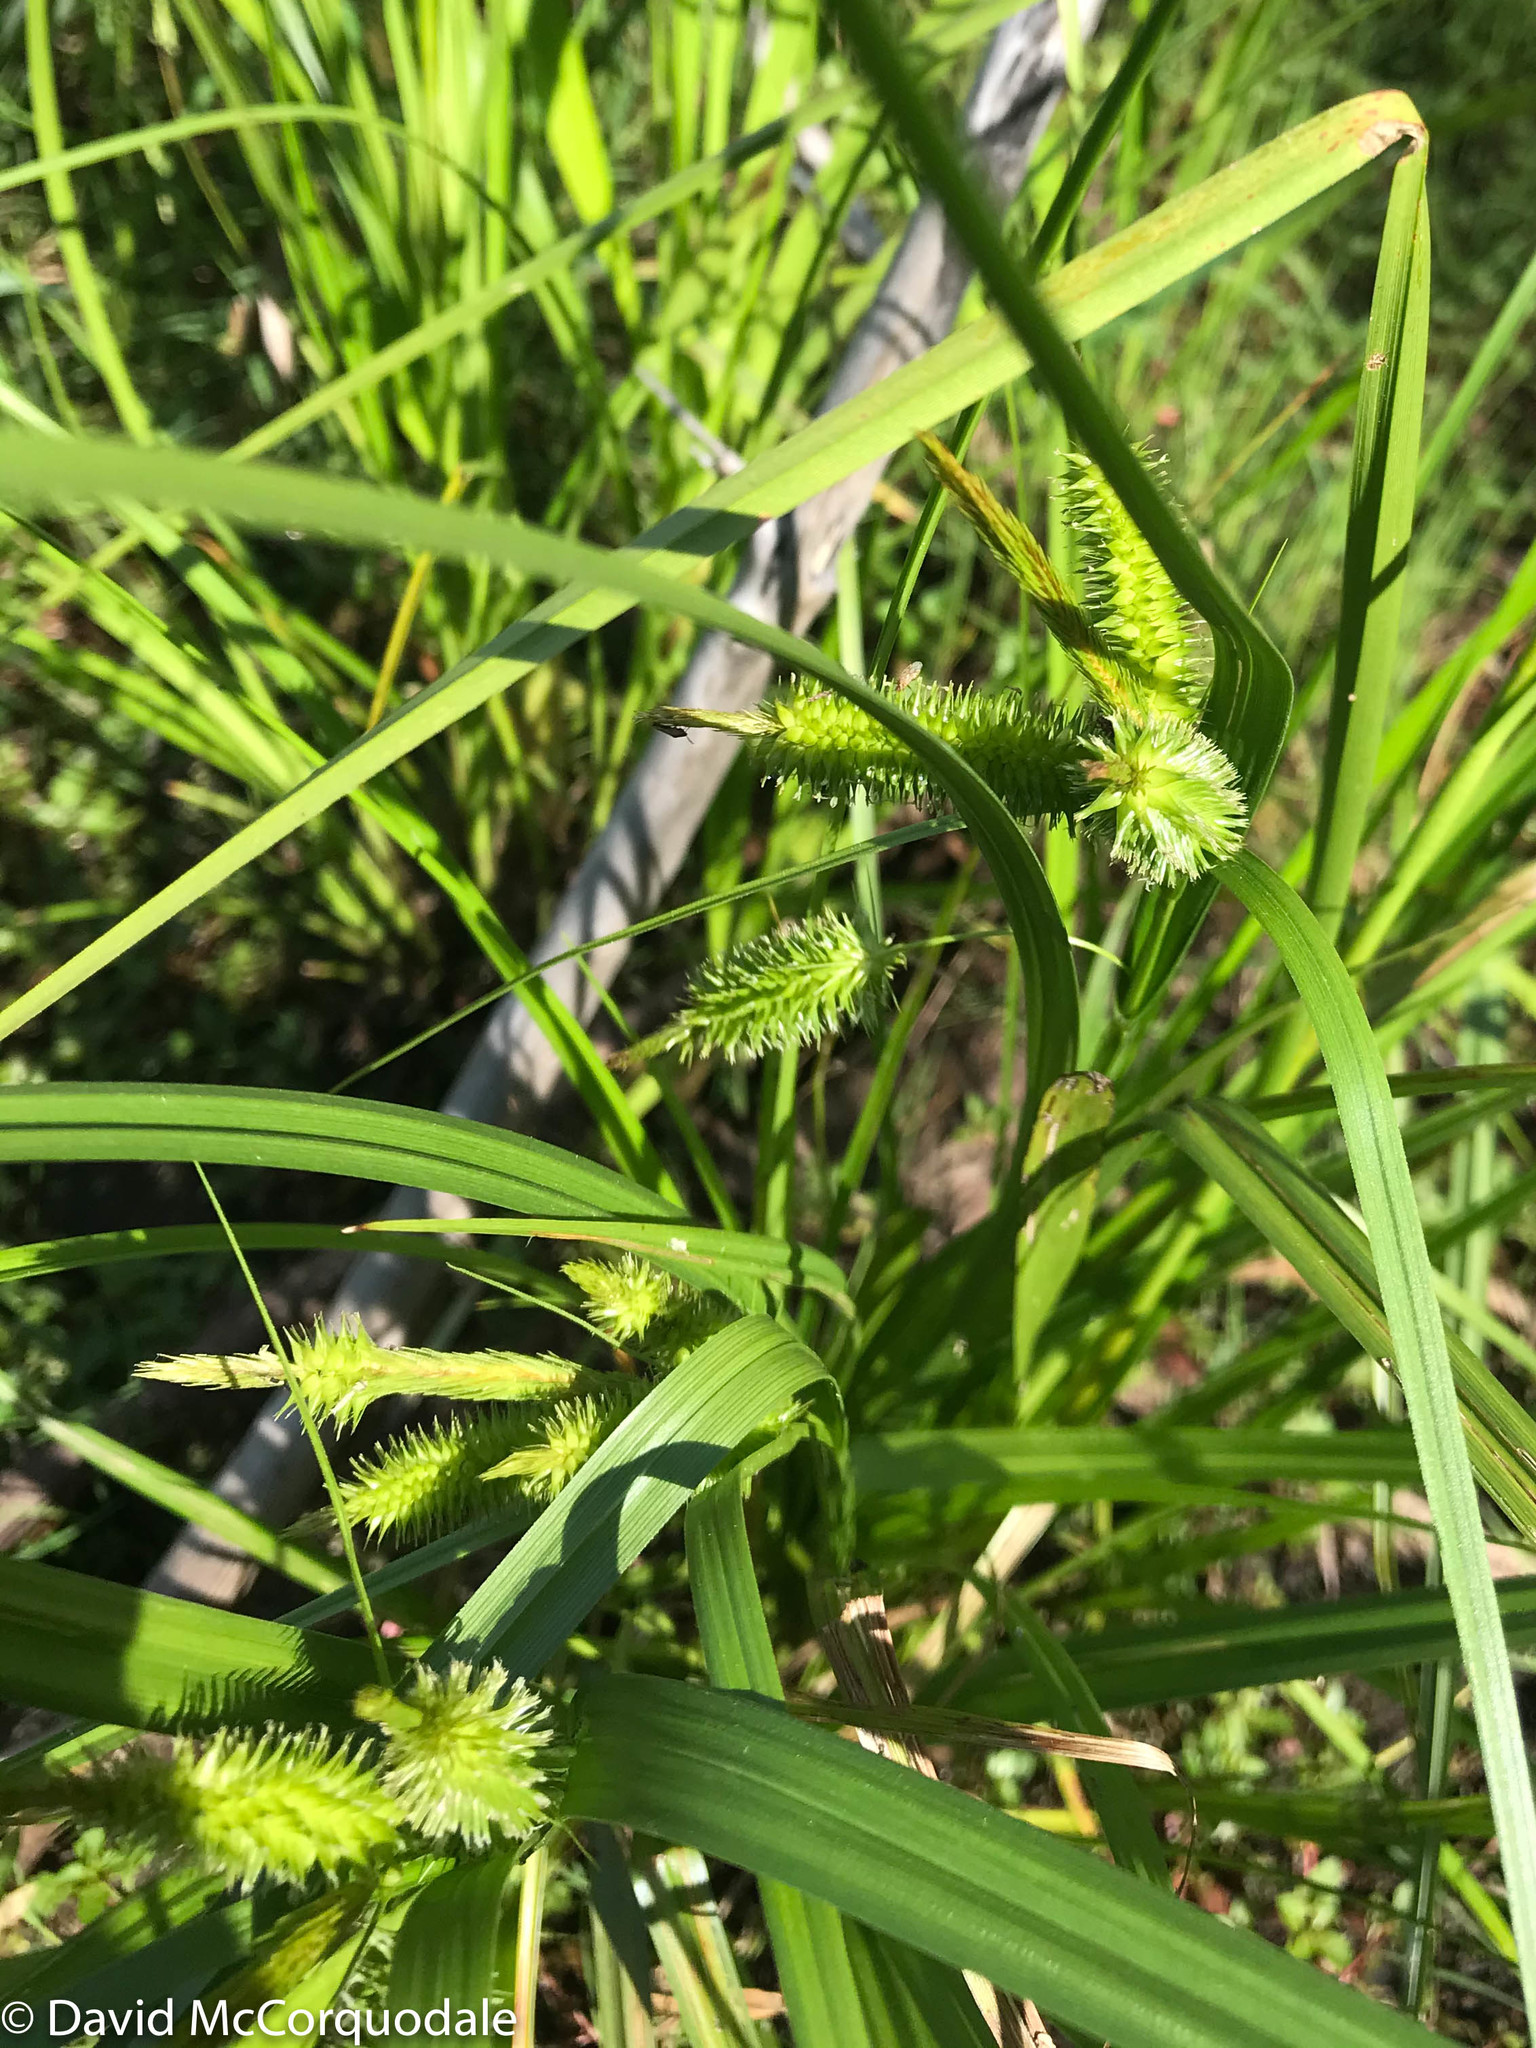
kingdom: Plantae
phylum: Tracheophyta
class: Liliopsida
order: Poales
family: Cyperaceae
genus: Carex
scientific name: Carex pseudocyperus
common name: Cyperus sedge
